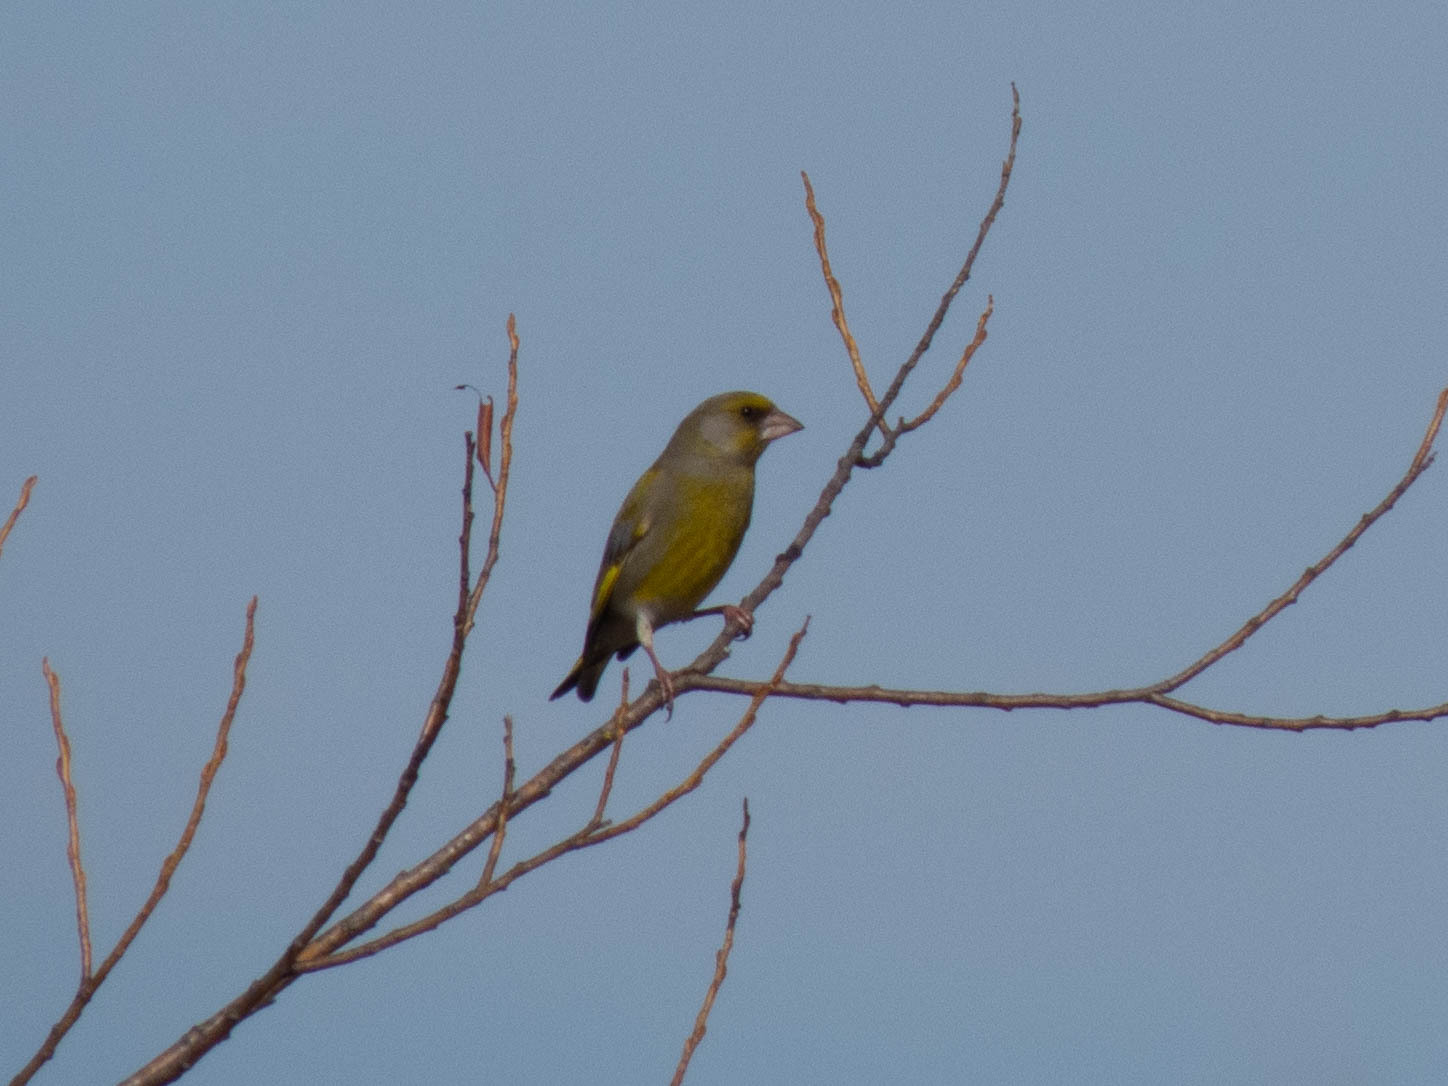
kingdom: Plantae
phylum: Tracheophyta
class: Liliopsida
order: Poales
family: Poaceae
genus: Chloris
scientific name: Chloris chloris
